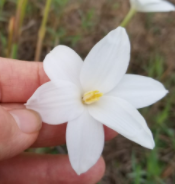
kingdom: Plantae
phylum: Tracheophyta
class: Liliopsida
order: Asparagales
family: Amaryllidaceae
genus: Zephyranthes
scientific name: Zephyranthes chlorosolen
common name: Evening rain-lily
